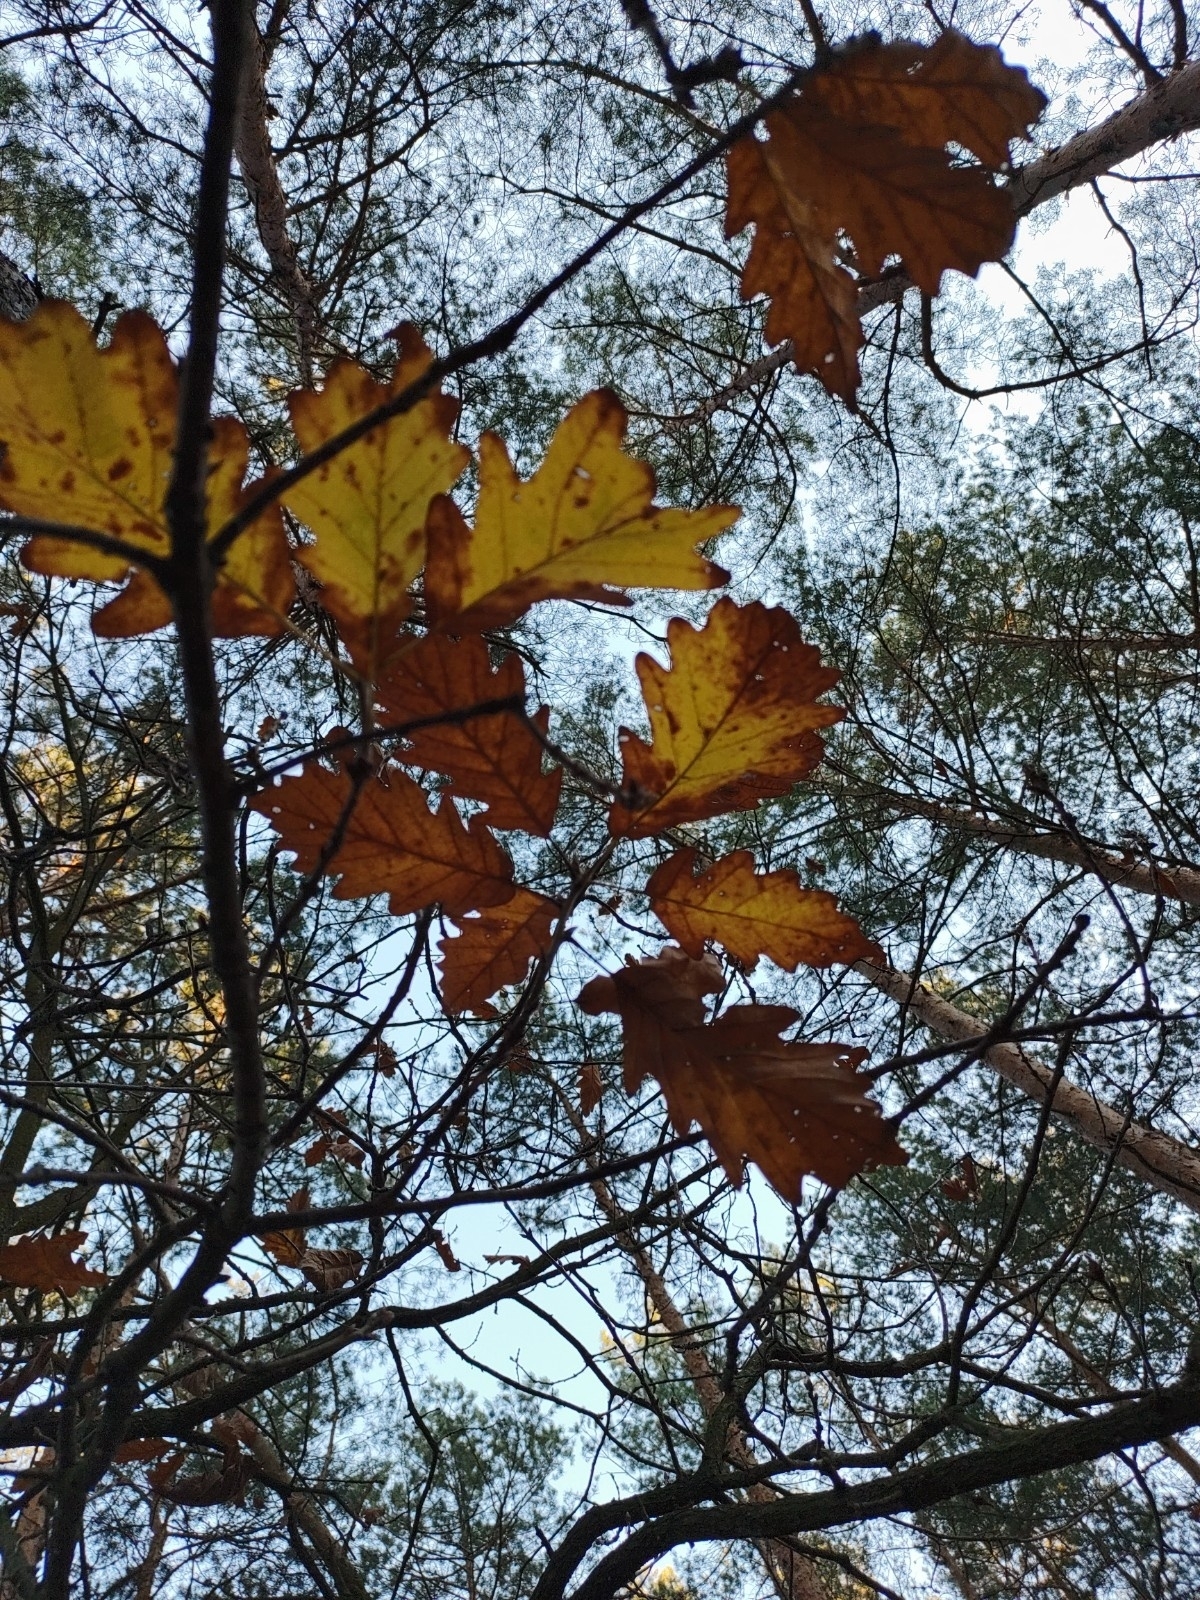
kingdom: Plantae
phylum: Tracheophyta
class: Magnoliopsida
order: Fagales
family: Fagaceae
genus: Quercus
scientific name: Quercus petraea
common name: Sessile oak
